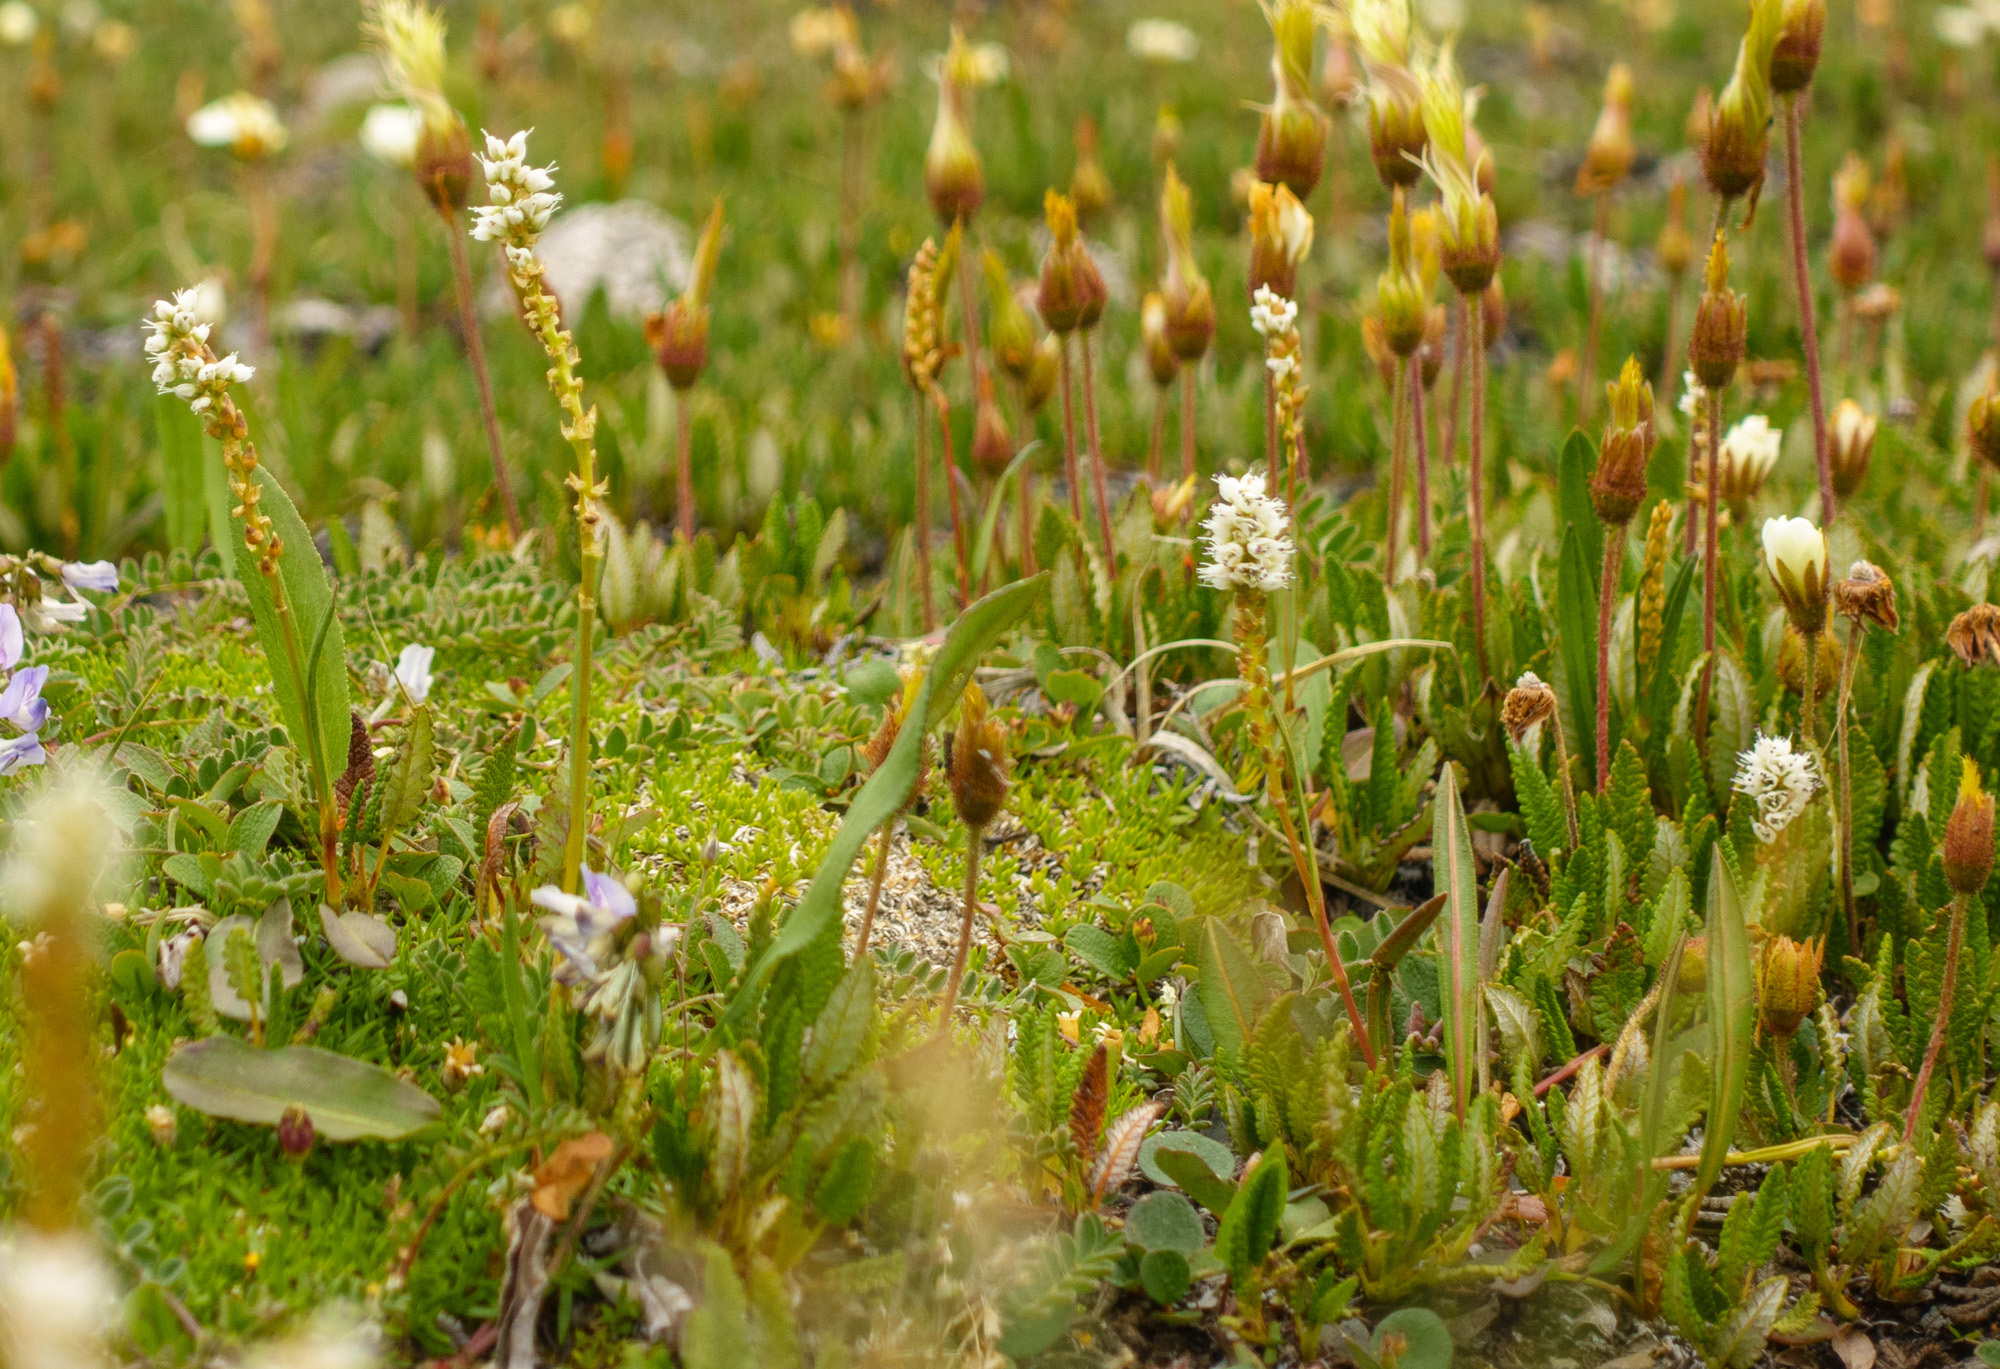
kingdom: Plantae
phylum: Tracheophyta
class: Magnoliopsida
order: Caryophyllales
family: Polygonaceae
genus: Bistorta
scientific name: Bistorta vivipara
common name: Alpine bistort
